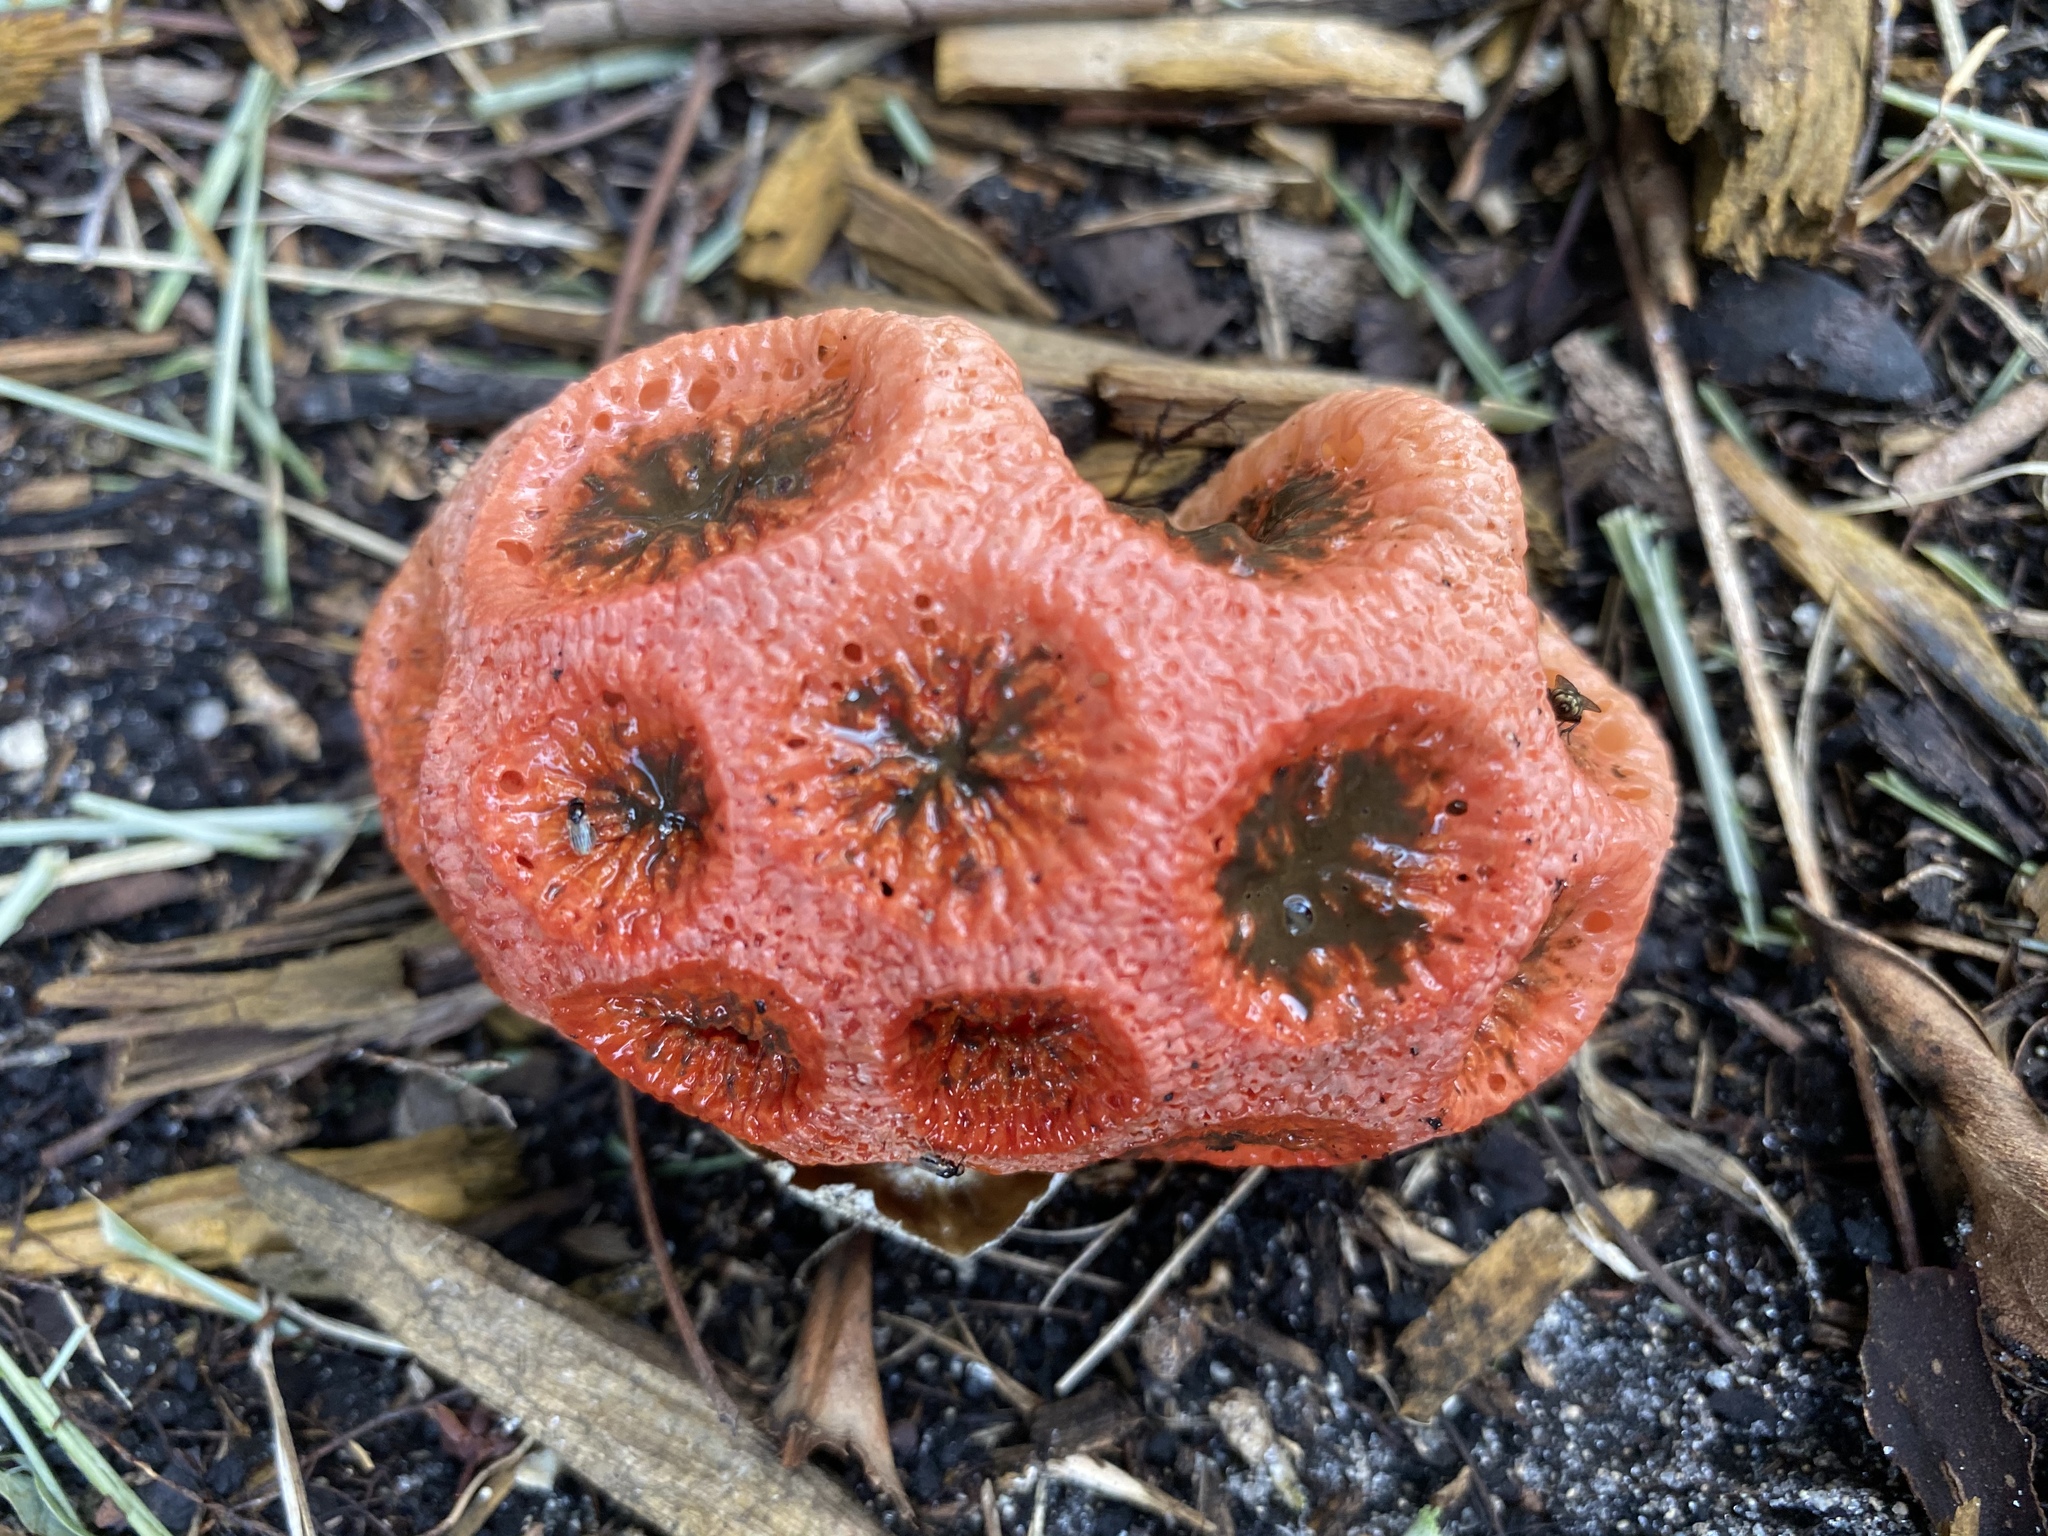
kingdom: Fungi
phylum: Basidiomycota
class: Agaricomycetes
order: Phallales
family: Phallaceae
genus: Clathrus
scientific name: Clathrus crispatus
